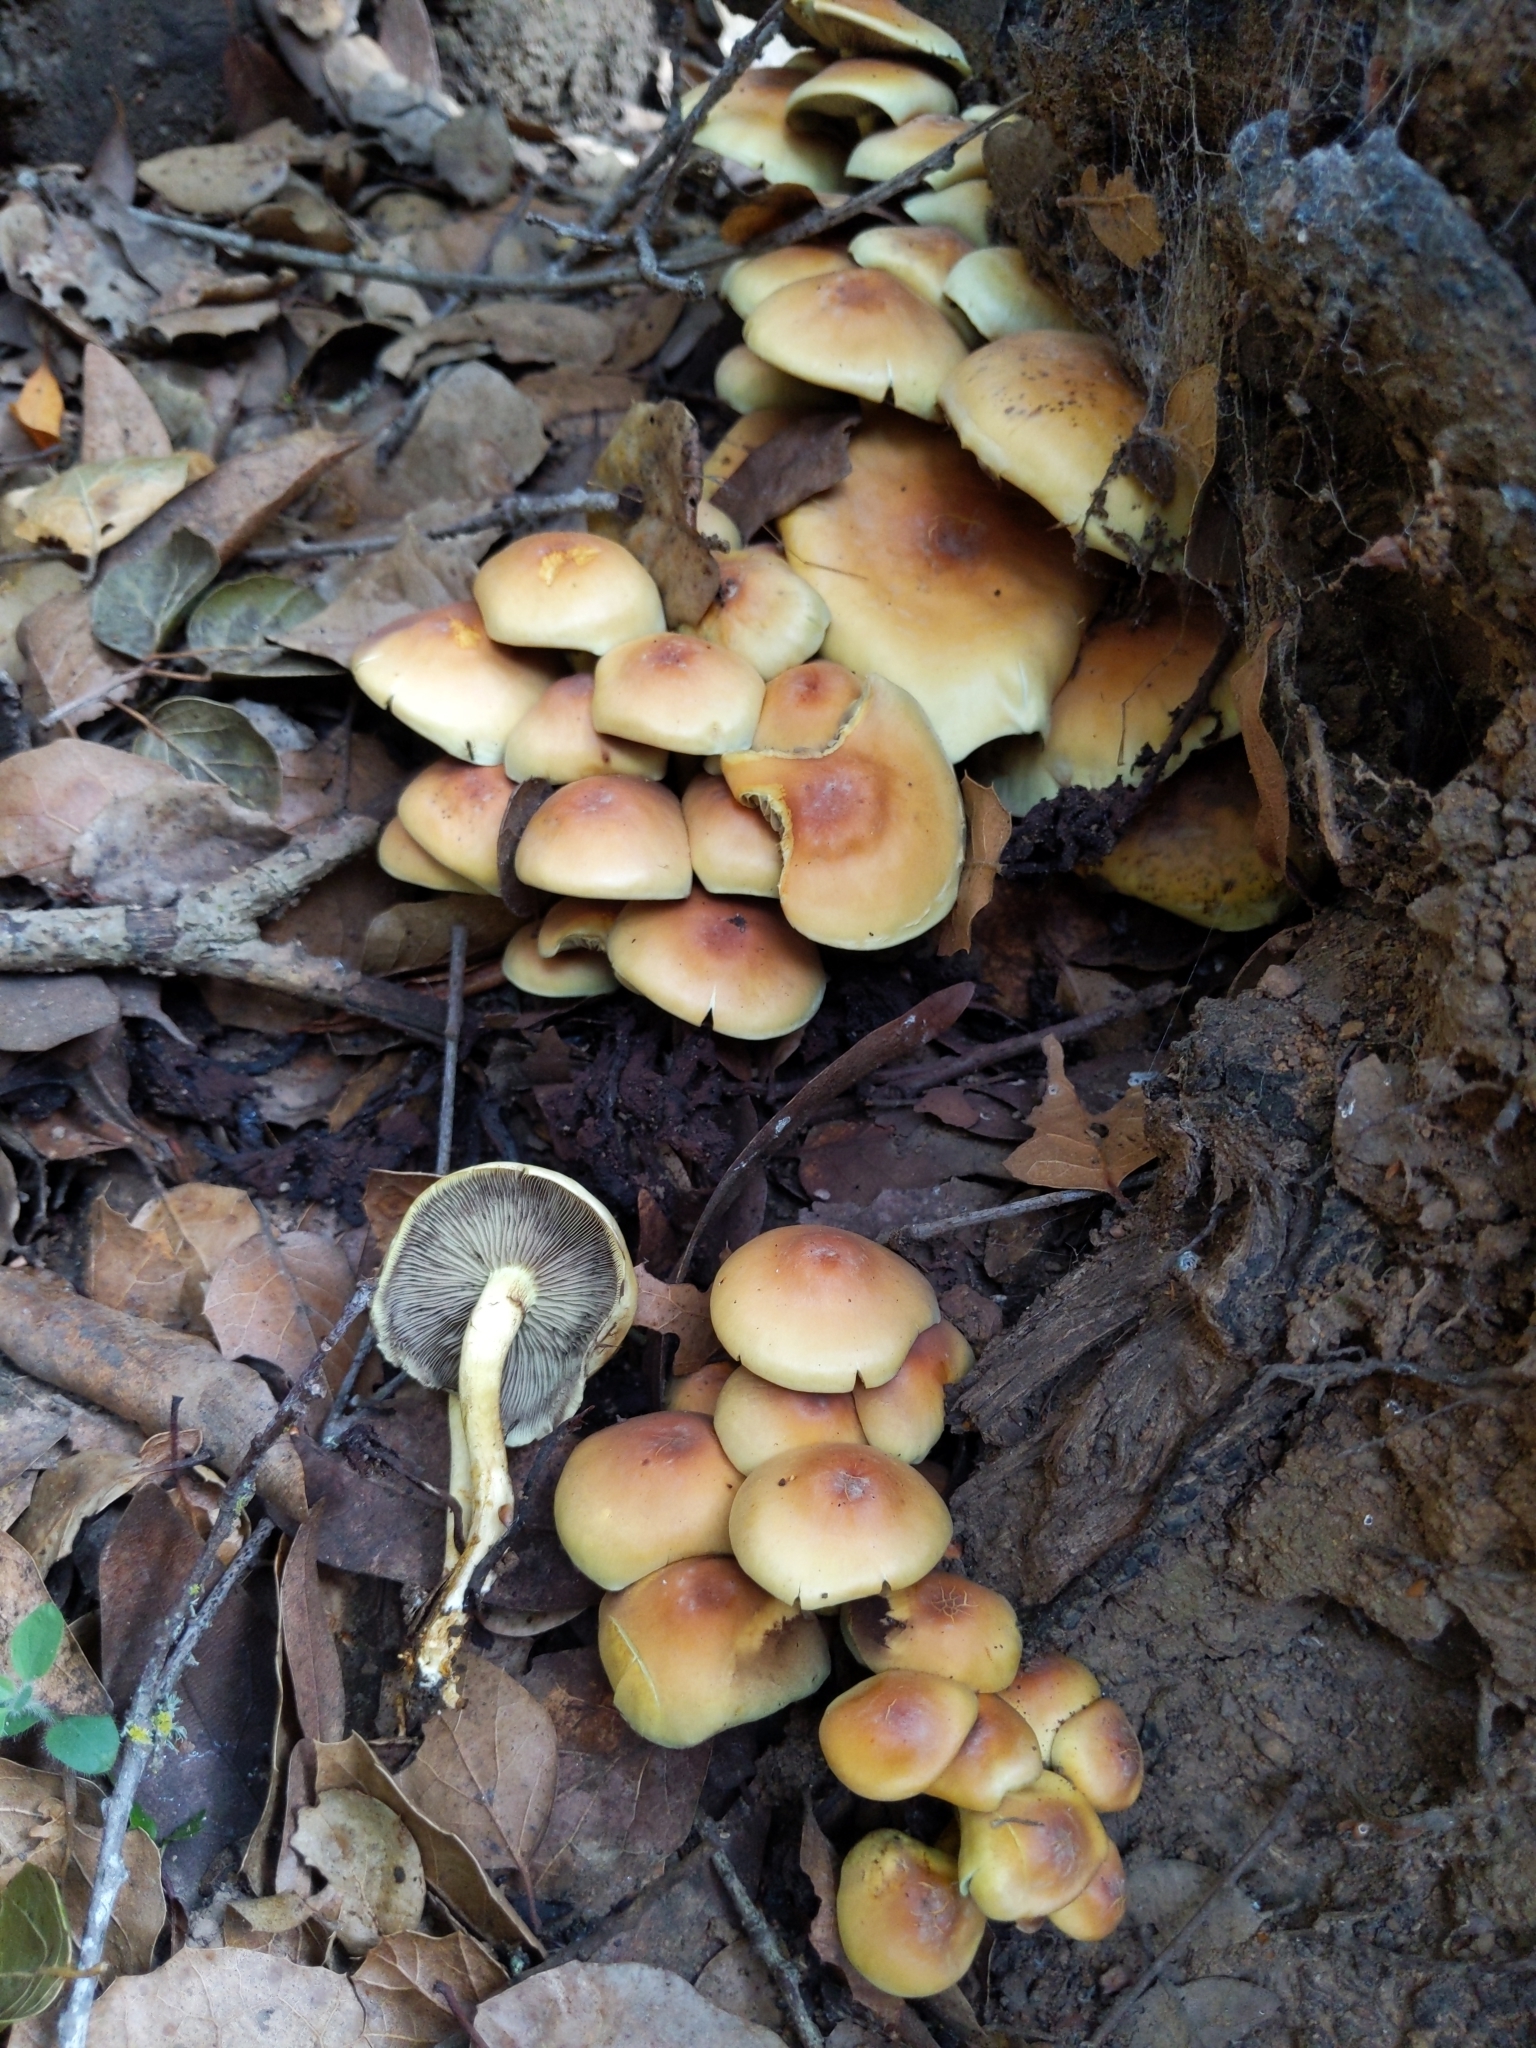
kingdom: Fungi
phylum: Basidiomycota
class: Agaricomycetes
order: Agaricales
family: Strophariaceae
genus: Hypholoma
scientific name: Hypholoma fasciculare
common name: Sulphur tuft
